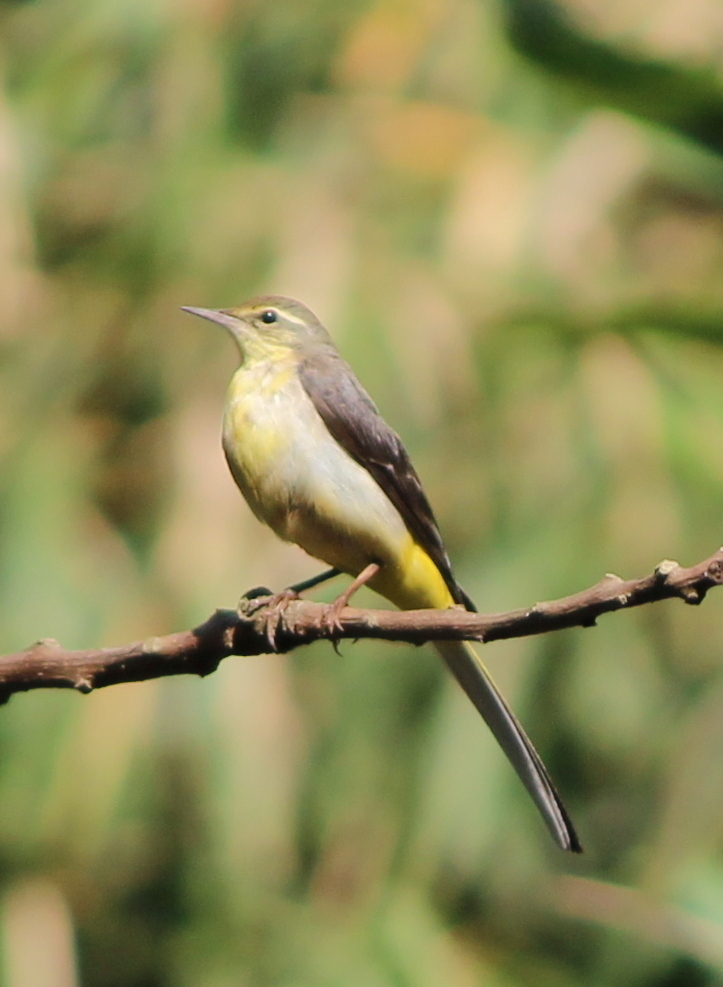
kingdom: Animalia
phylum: Chordata
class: Aves
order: Passeriformes
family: Motacillidae
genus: Motacilla
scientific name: Motacilla cinerea
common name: Grey wagtail
